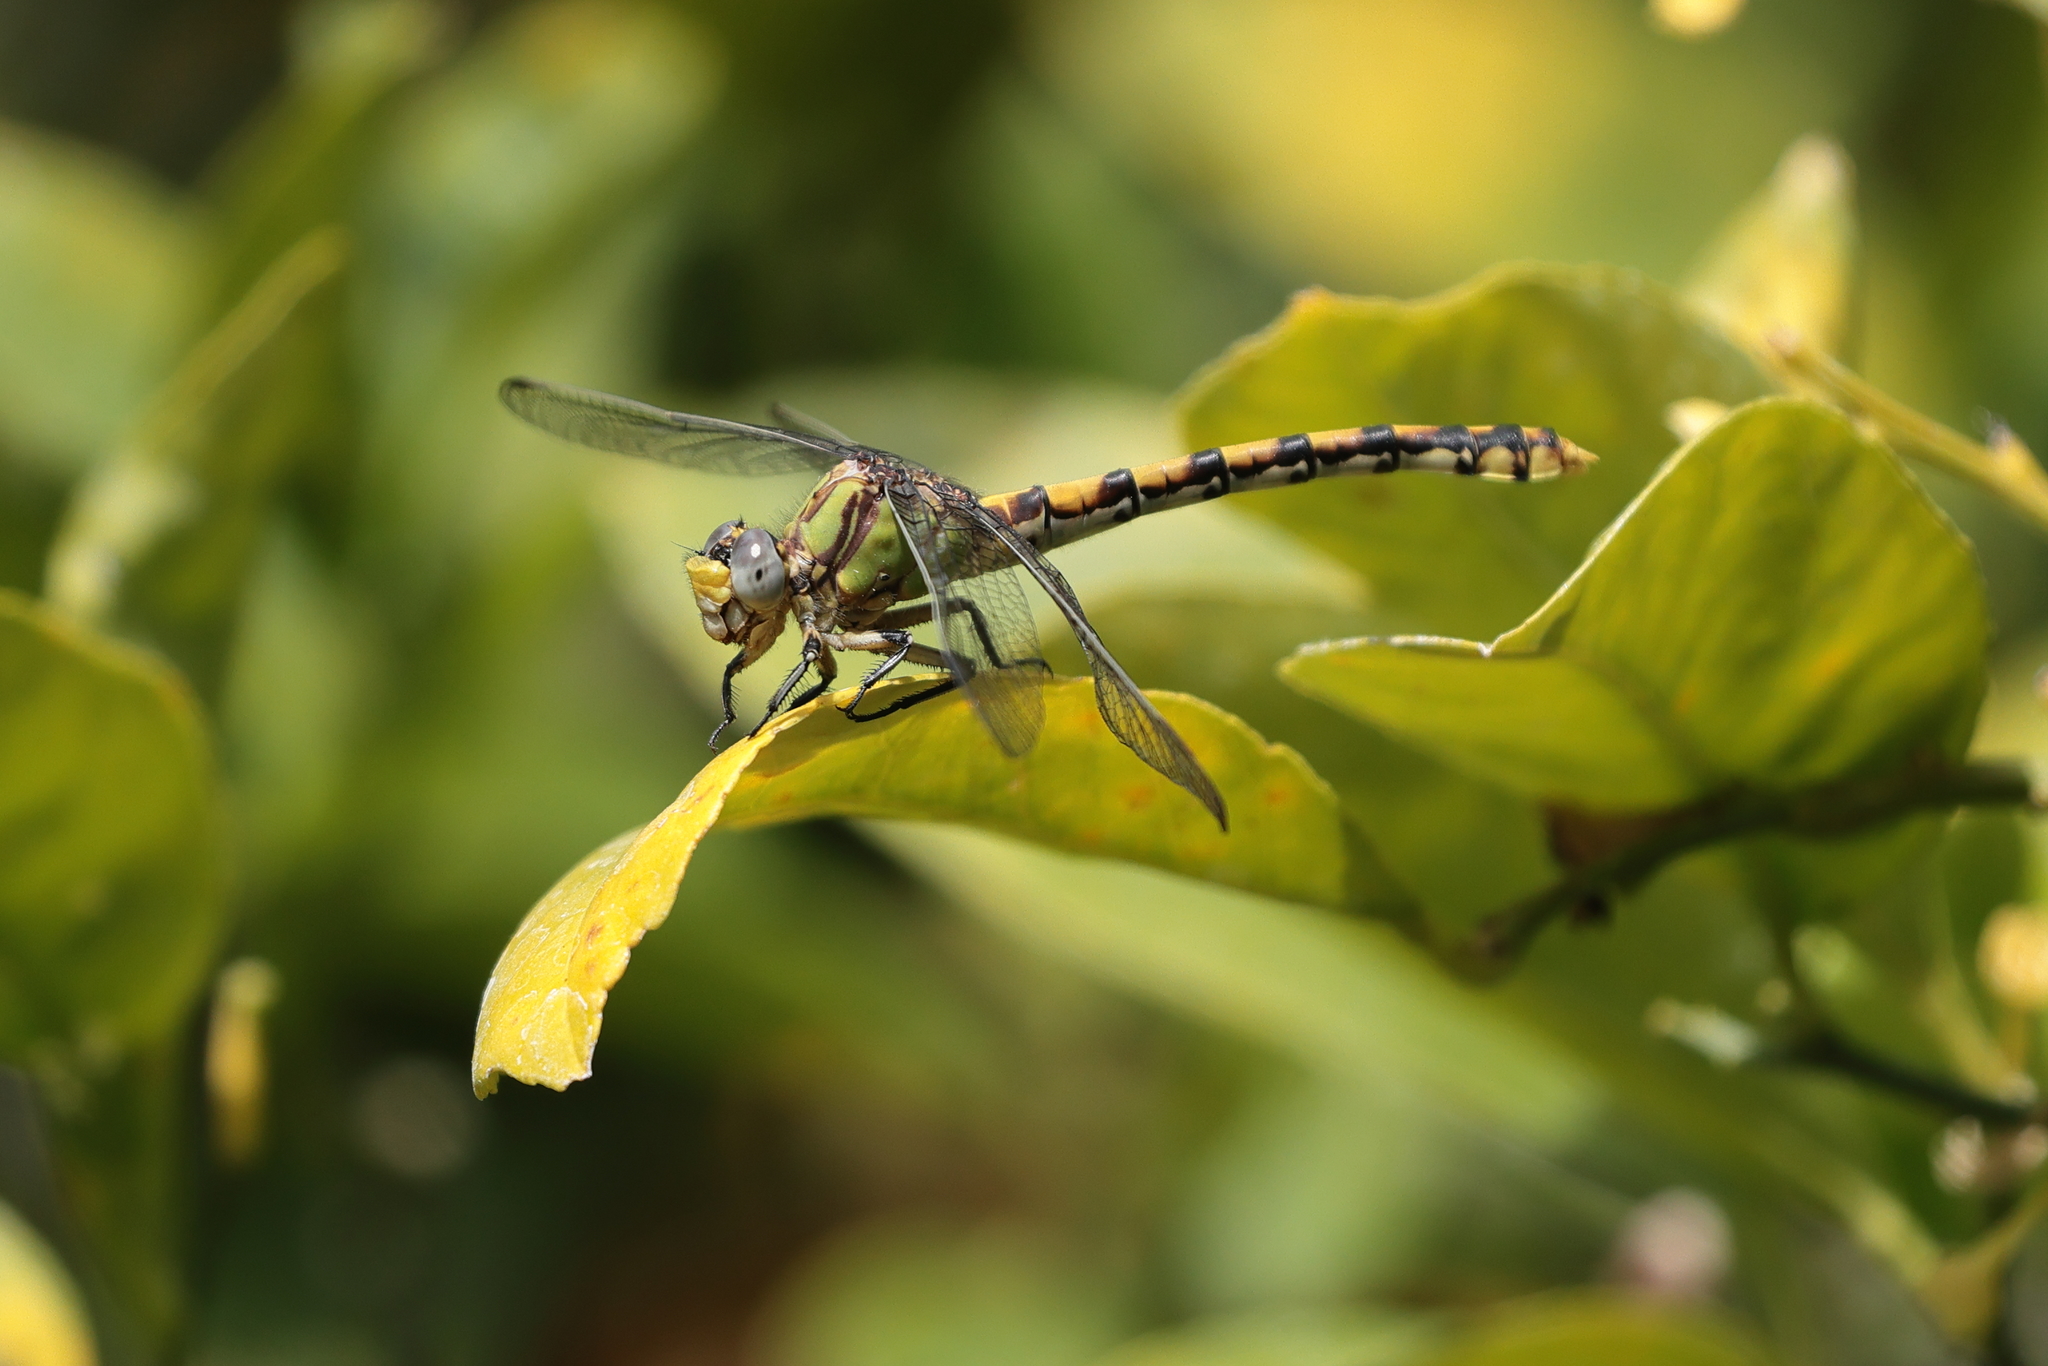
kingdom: Animalia
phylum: Arthropoda
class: Insecta
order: Odonata
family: Gomphidae
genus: Ophiogomphus
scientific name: Ophiogomphus occidentis
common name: Sinuous snaketail
